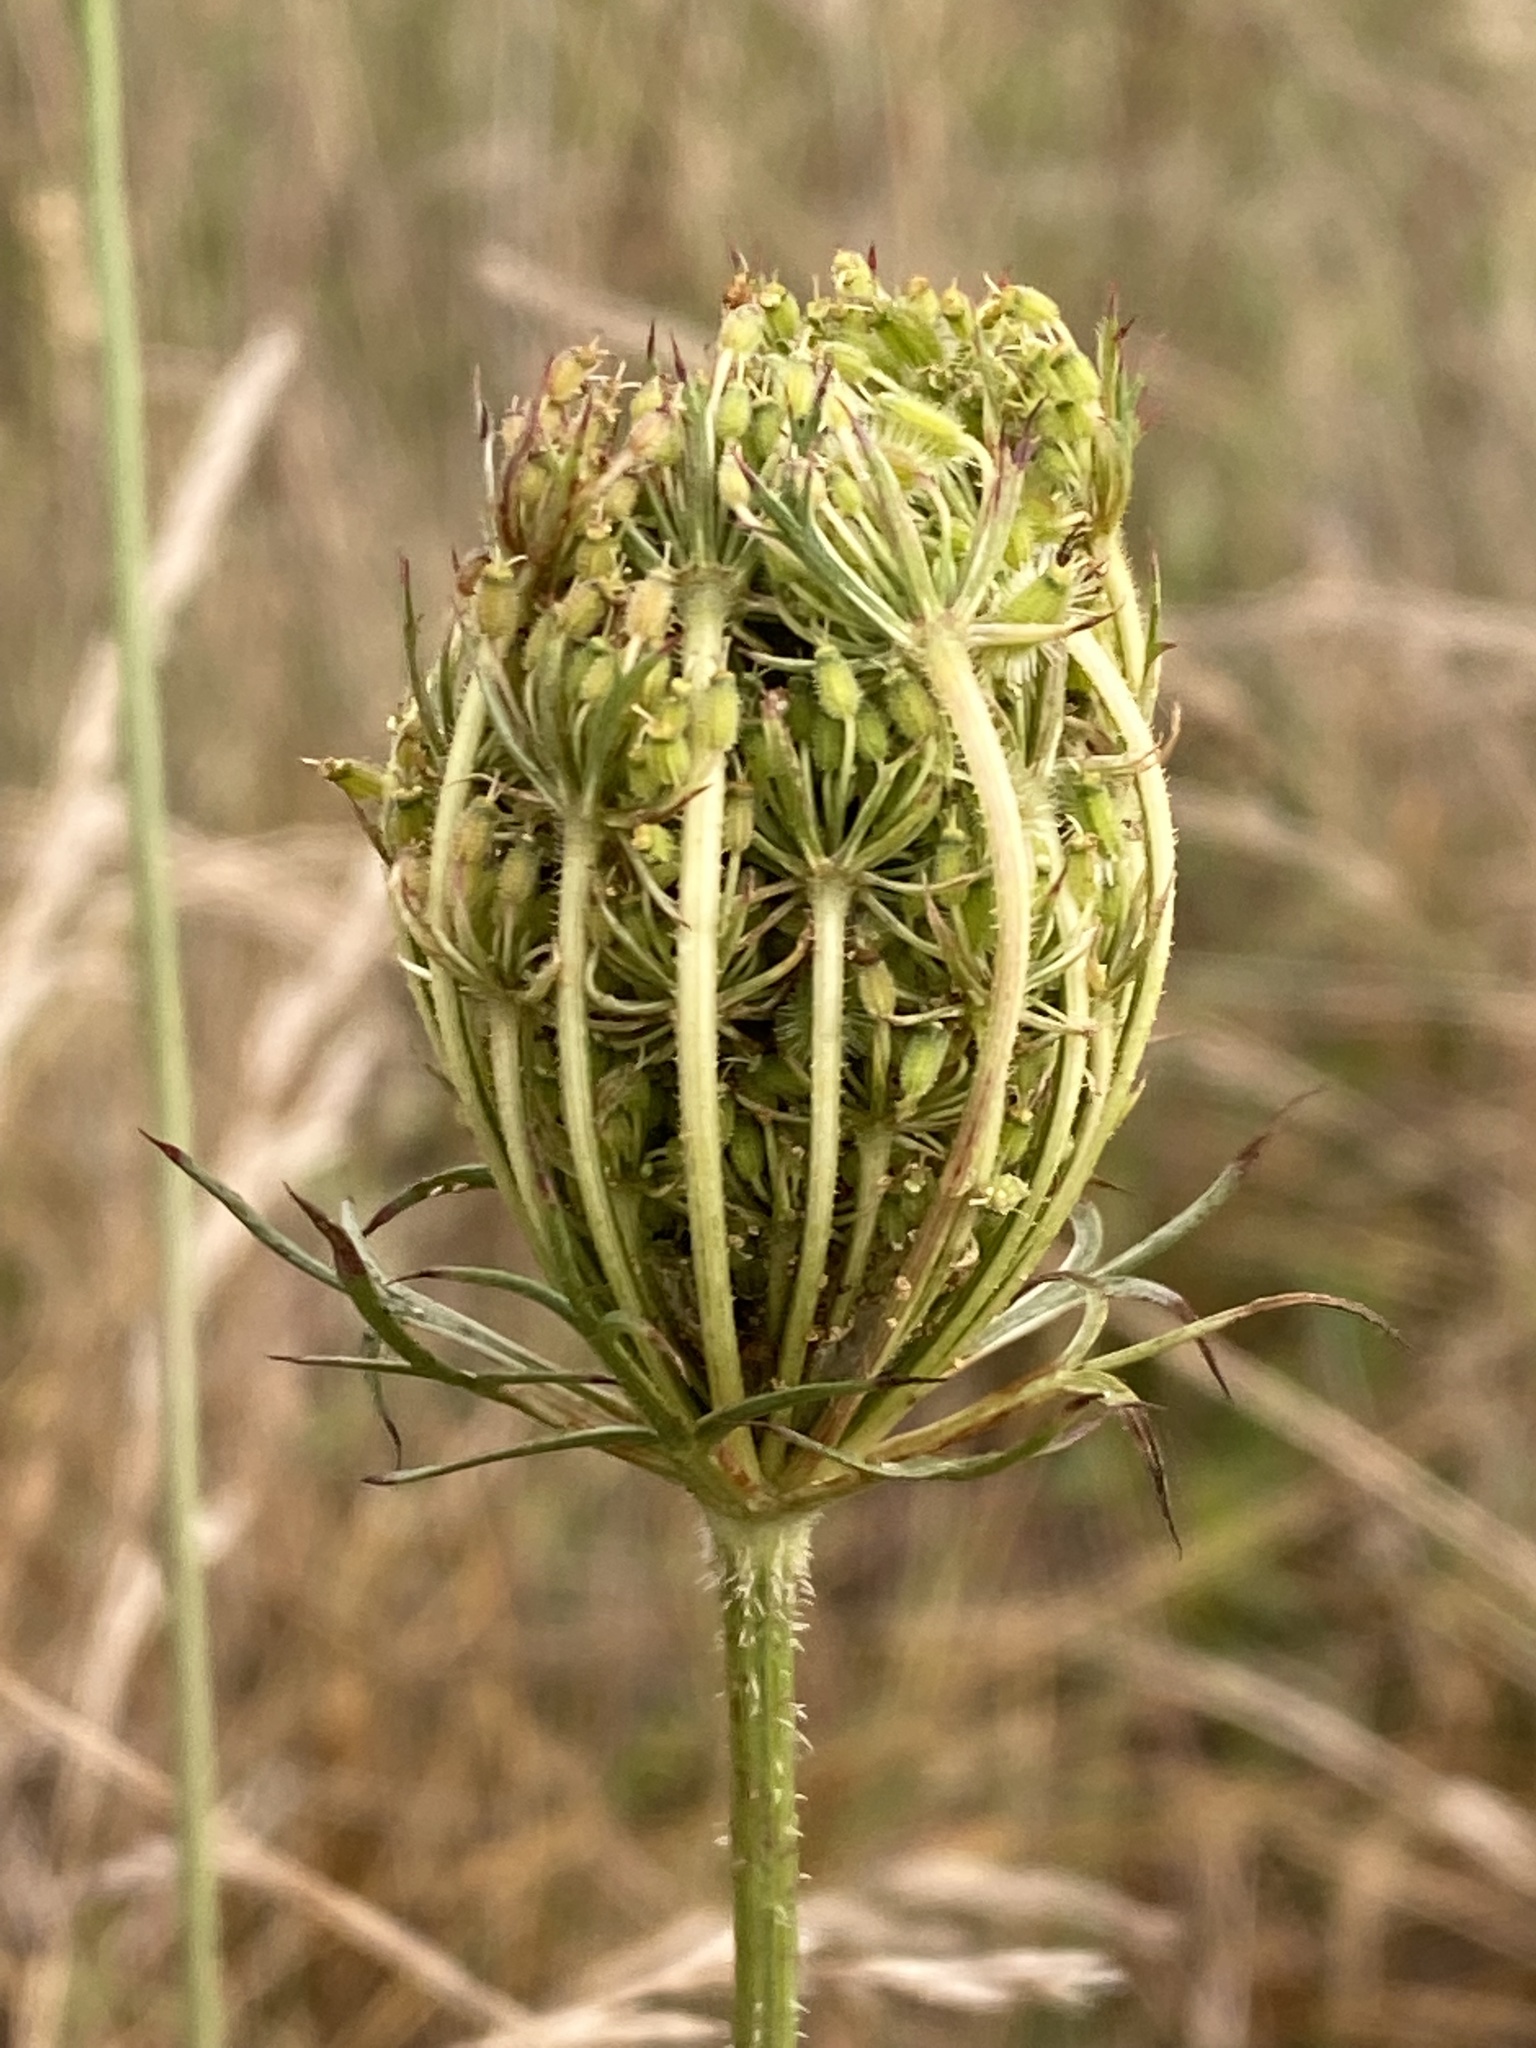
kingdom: Plantae
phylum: Tracheophyta
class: Magnoliopsida
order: Apiales
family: Apiaceae
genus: Daucus
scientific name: Daucus carota
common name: Wild carrot
